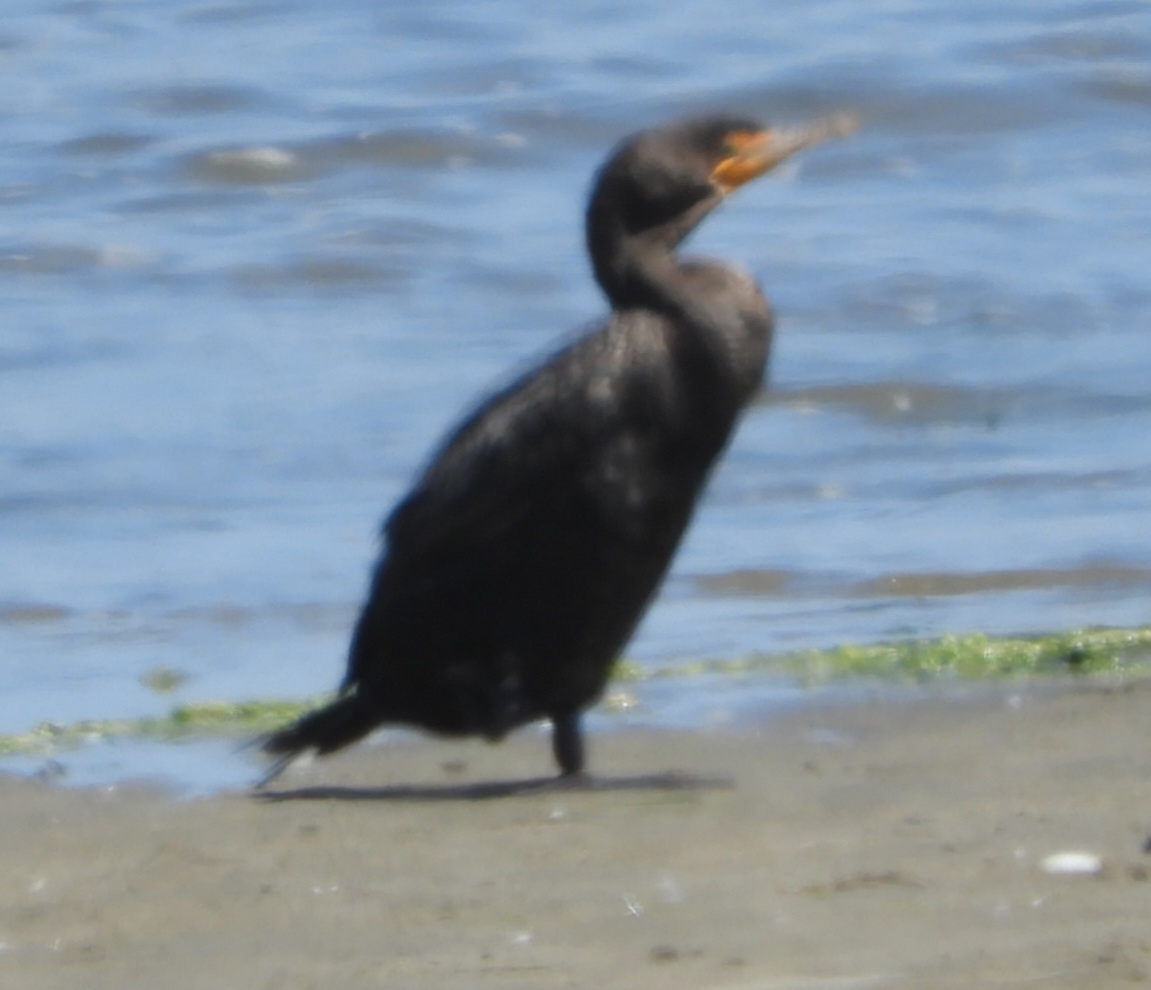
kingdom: Animalia
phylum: Chordata
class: Aves
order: Suliformes
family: Phalacrocoracidae
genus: Phalacrocorax
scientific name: Phalacrocorax auritus
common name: Double-crested cormorant
